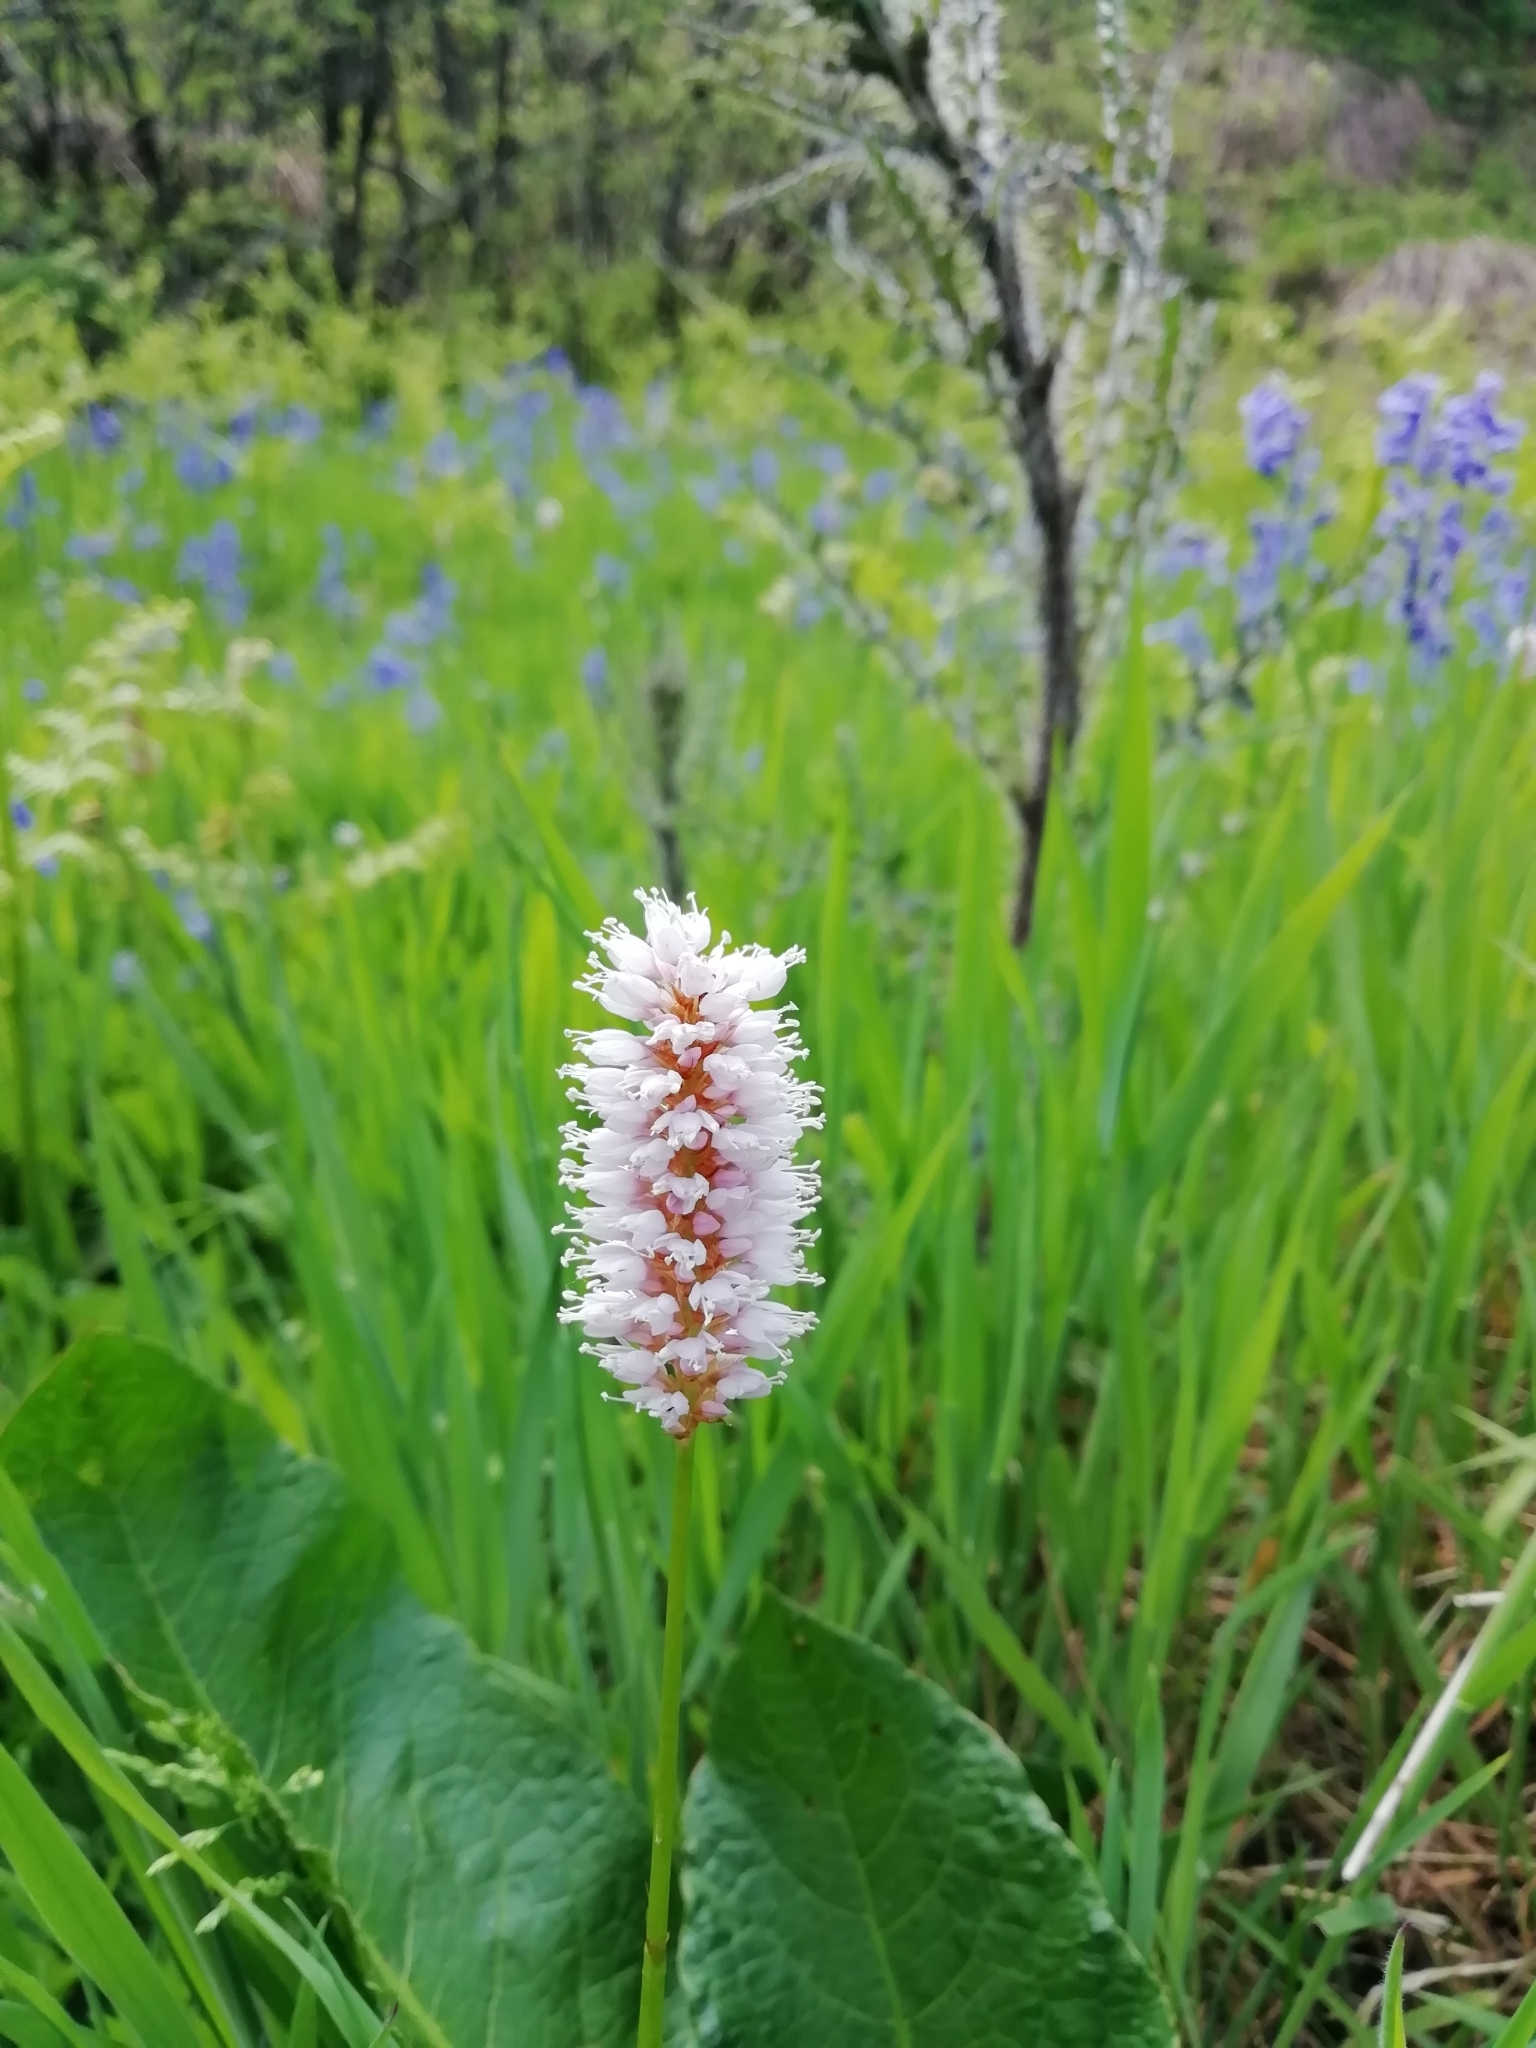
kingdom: Plantae
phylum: Tracheophyta
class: Magnoliopsida
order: Caryophyllales
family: Polygonaceae
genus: Bistorta
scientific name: Bistorta officinalis
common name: Common bistort
